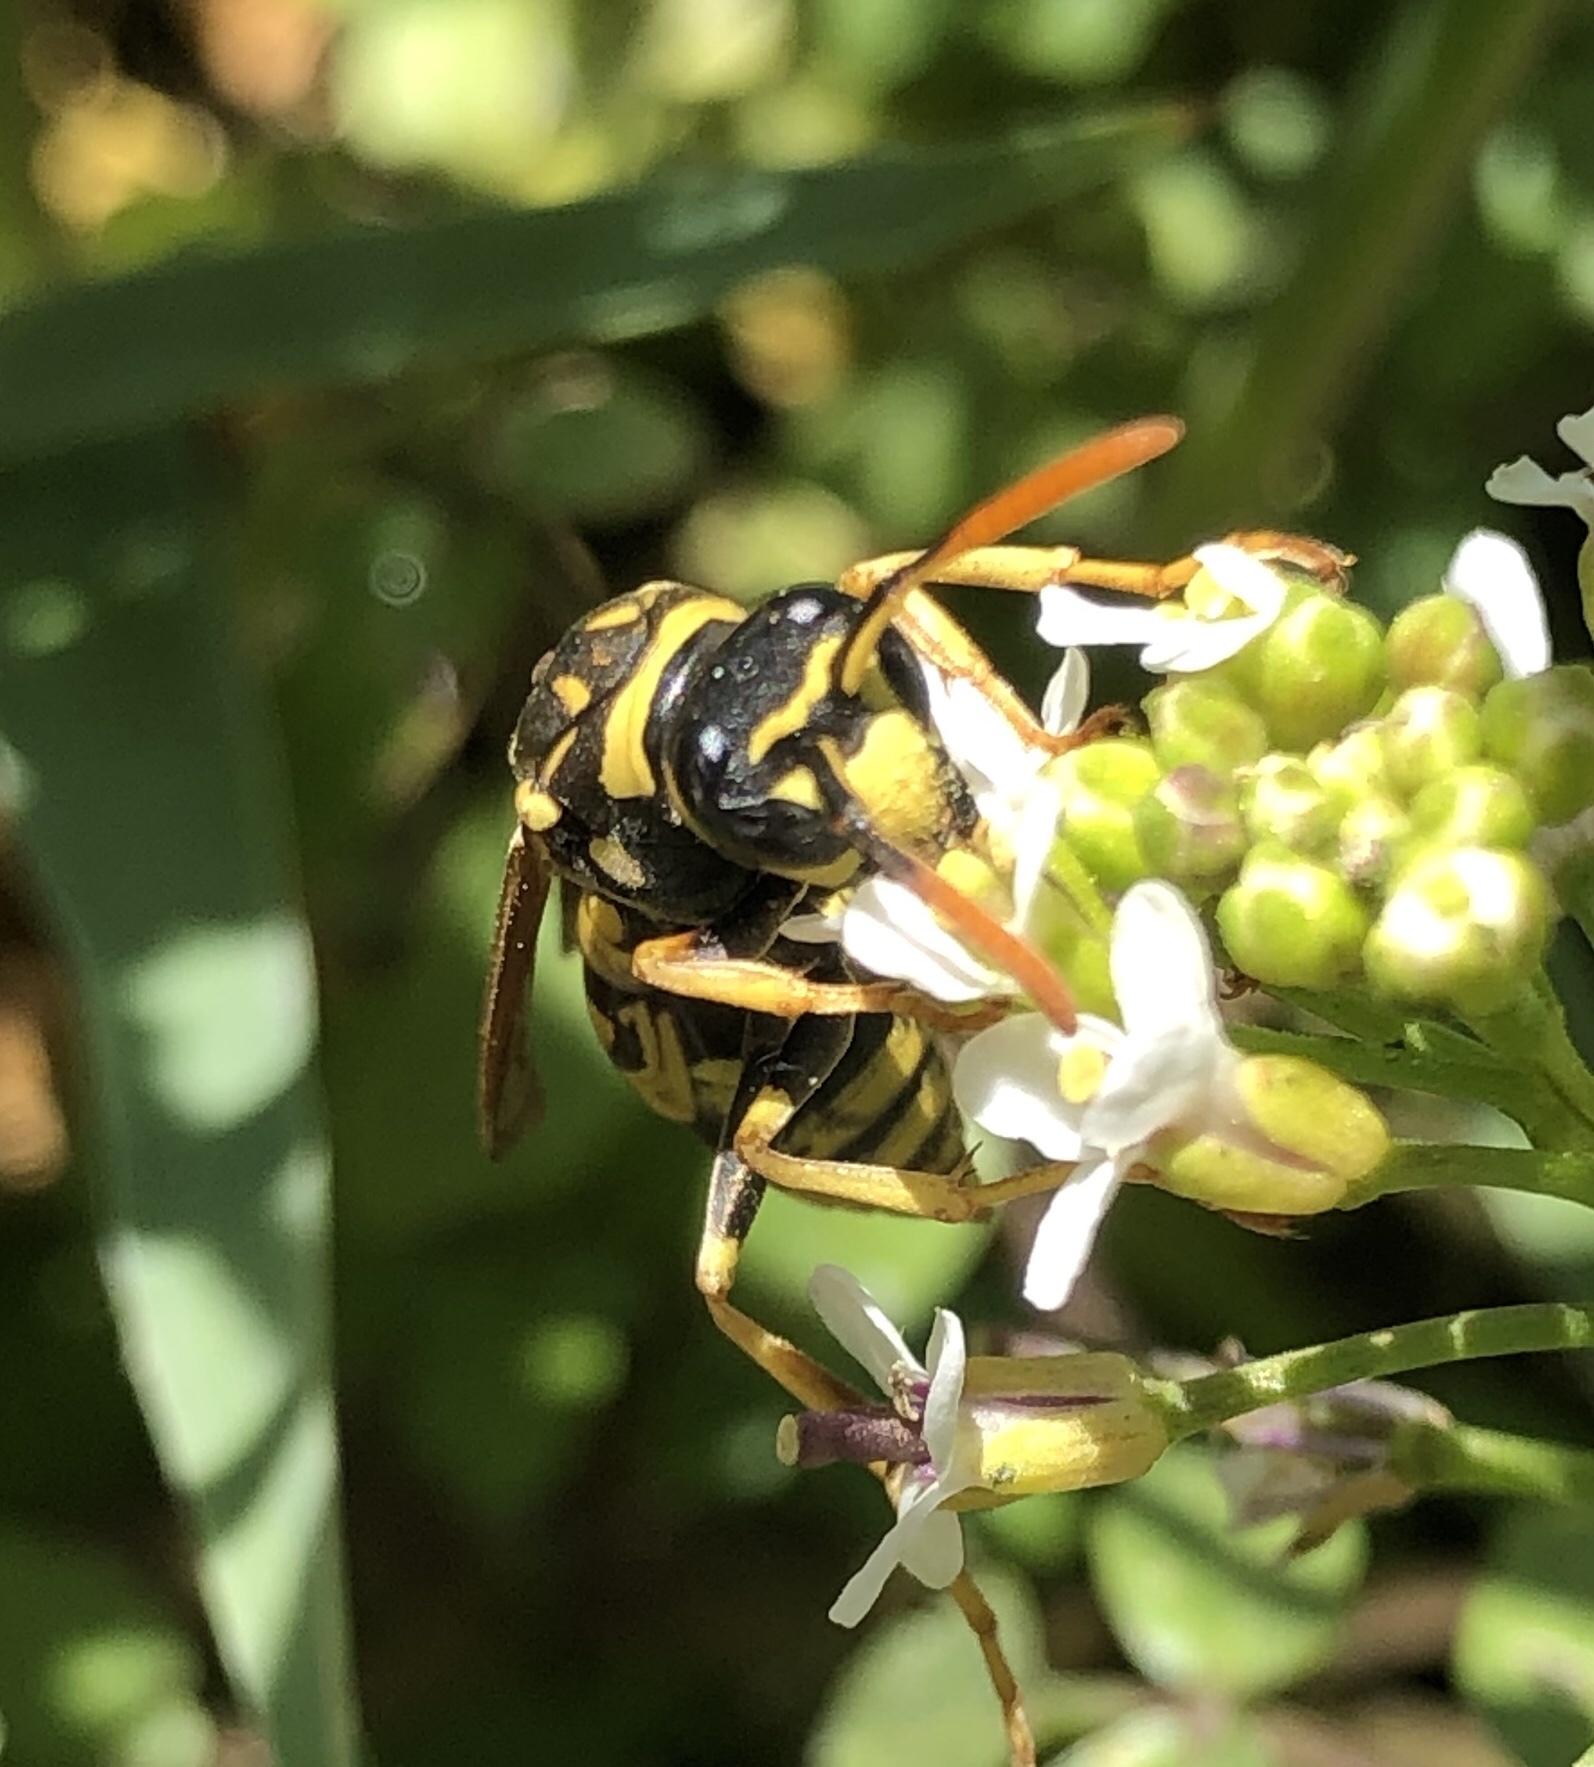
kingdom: Animalia
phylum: Arthropoda
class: Insecta
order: Hymenoptera
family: Eumenidae
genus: Polistes
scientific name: Polistes dominula
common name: Paper wasp
